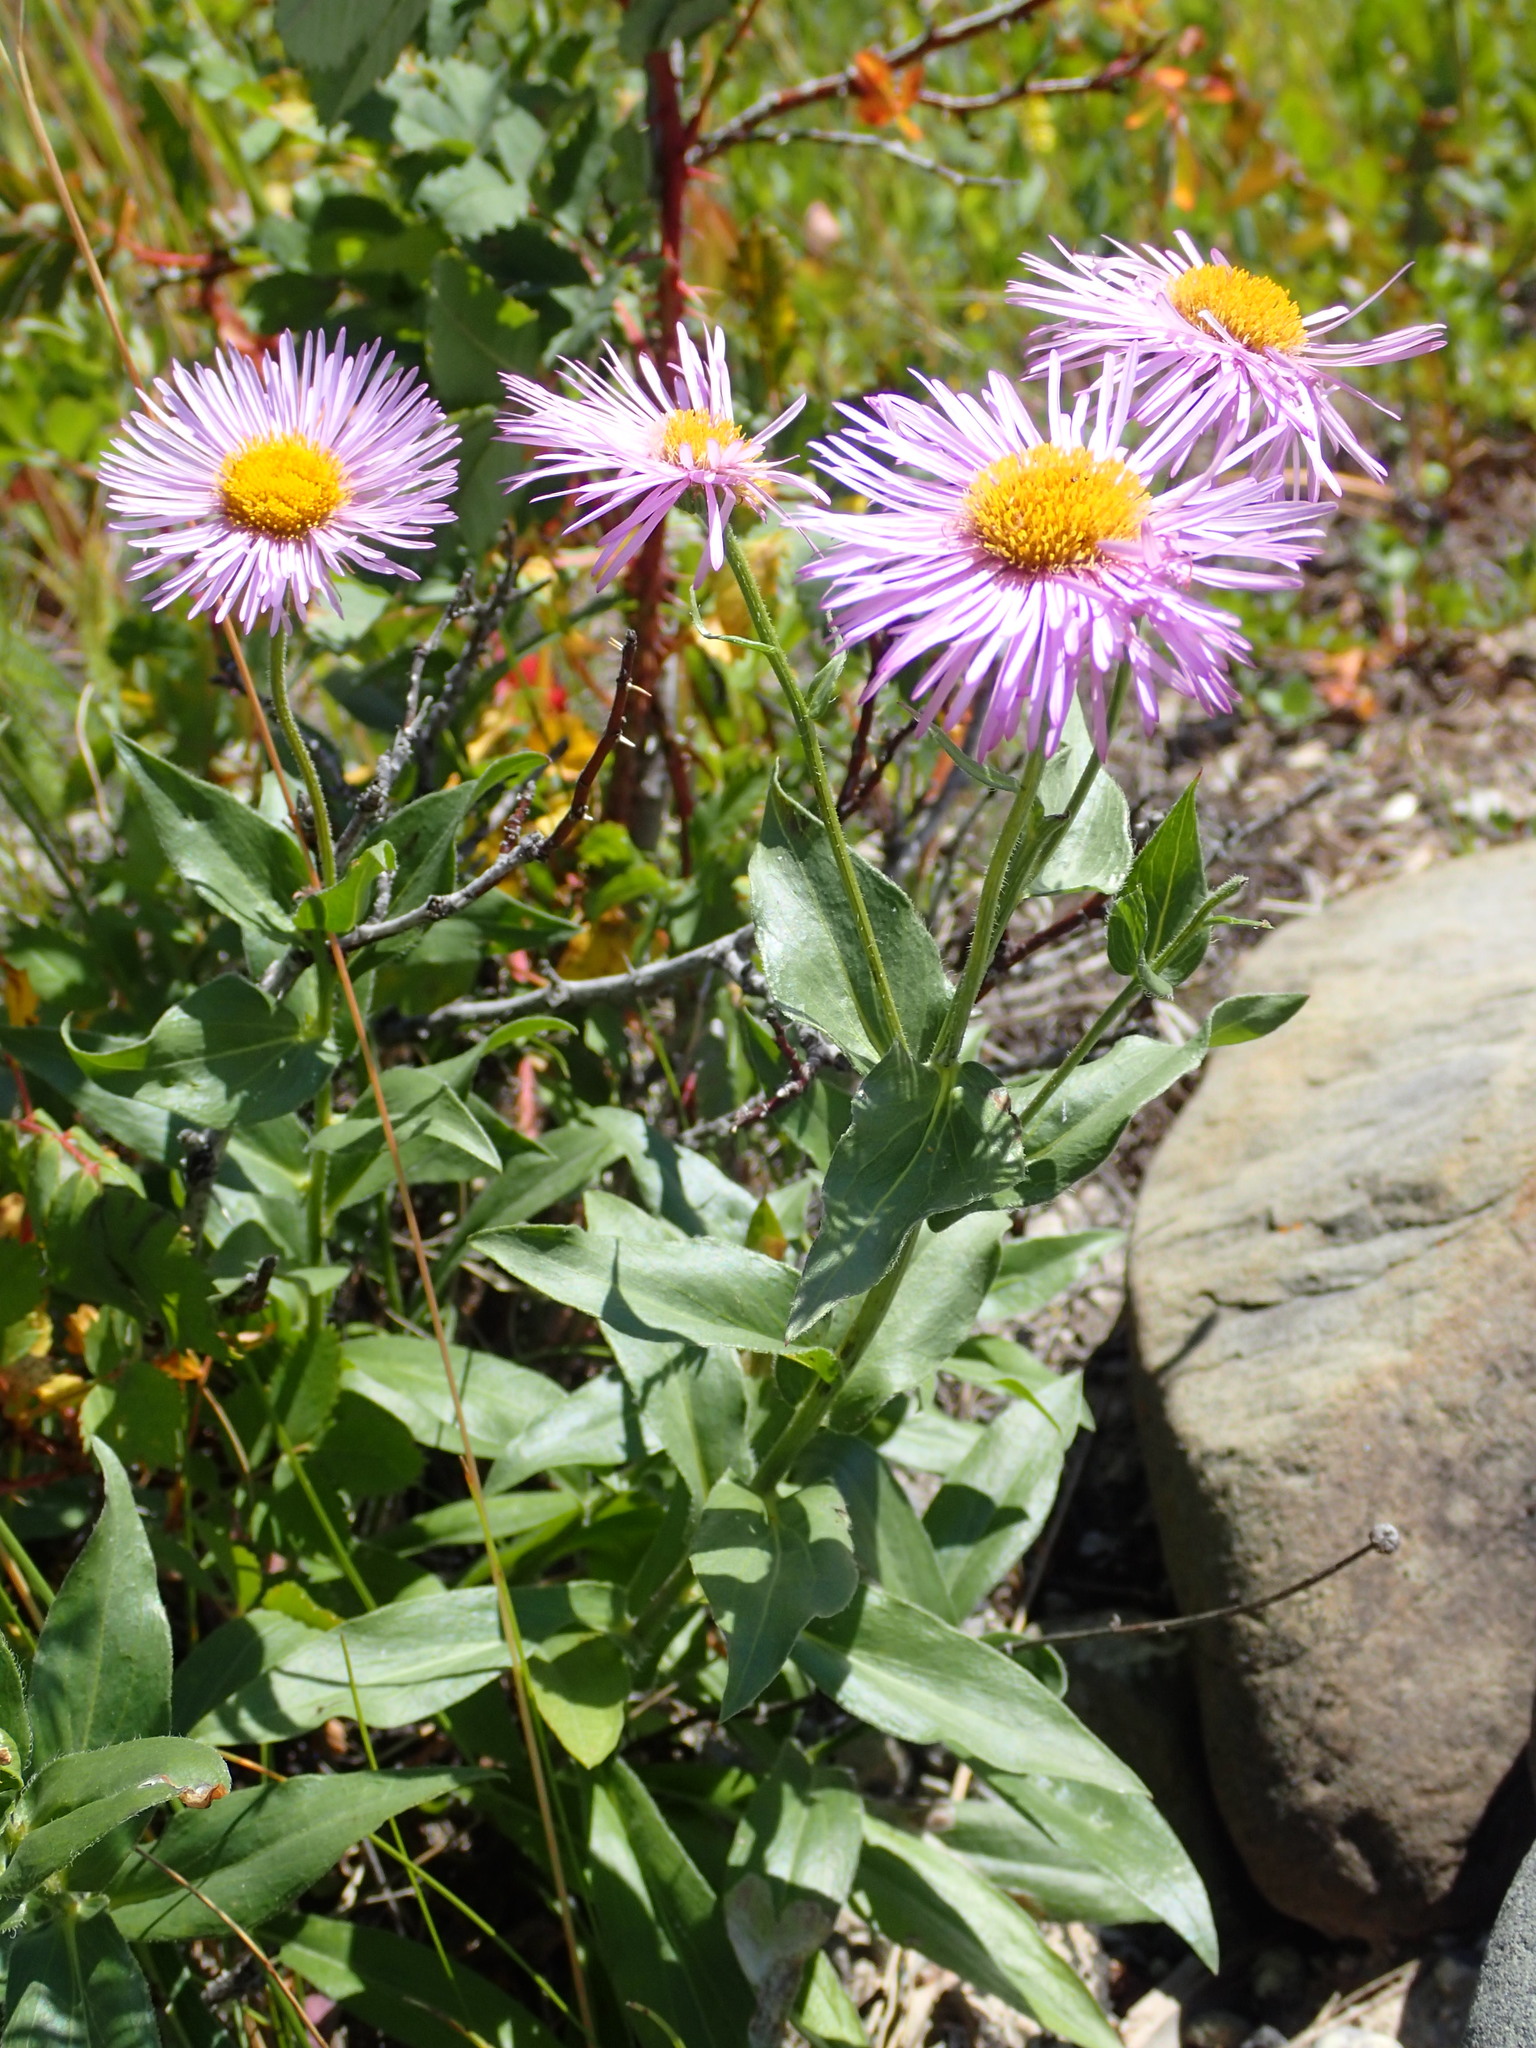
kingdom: Plantae
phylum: Tracheophyta
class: Magnoliopsida
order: Asterales
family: Asteraceae
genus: Erigeron
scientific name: Erigeron speciosus
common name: Aspen fleabane
